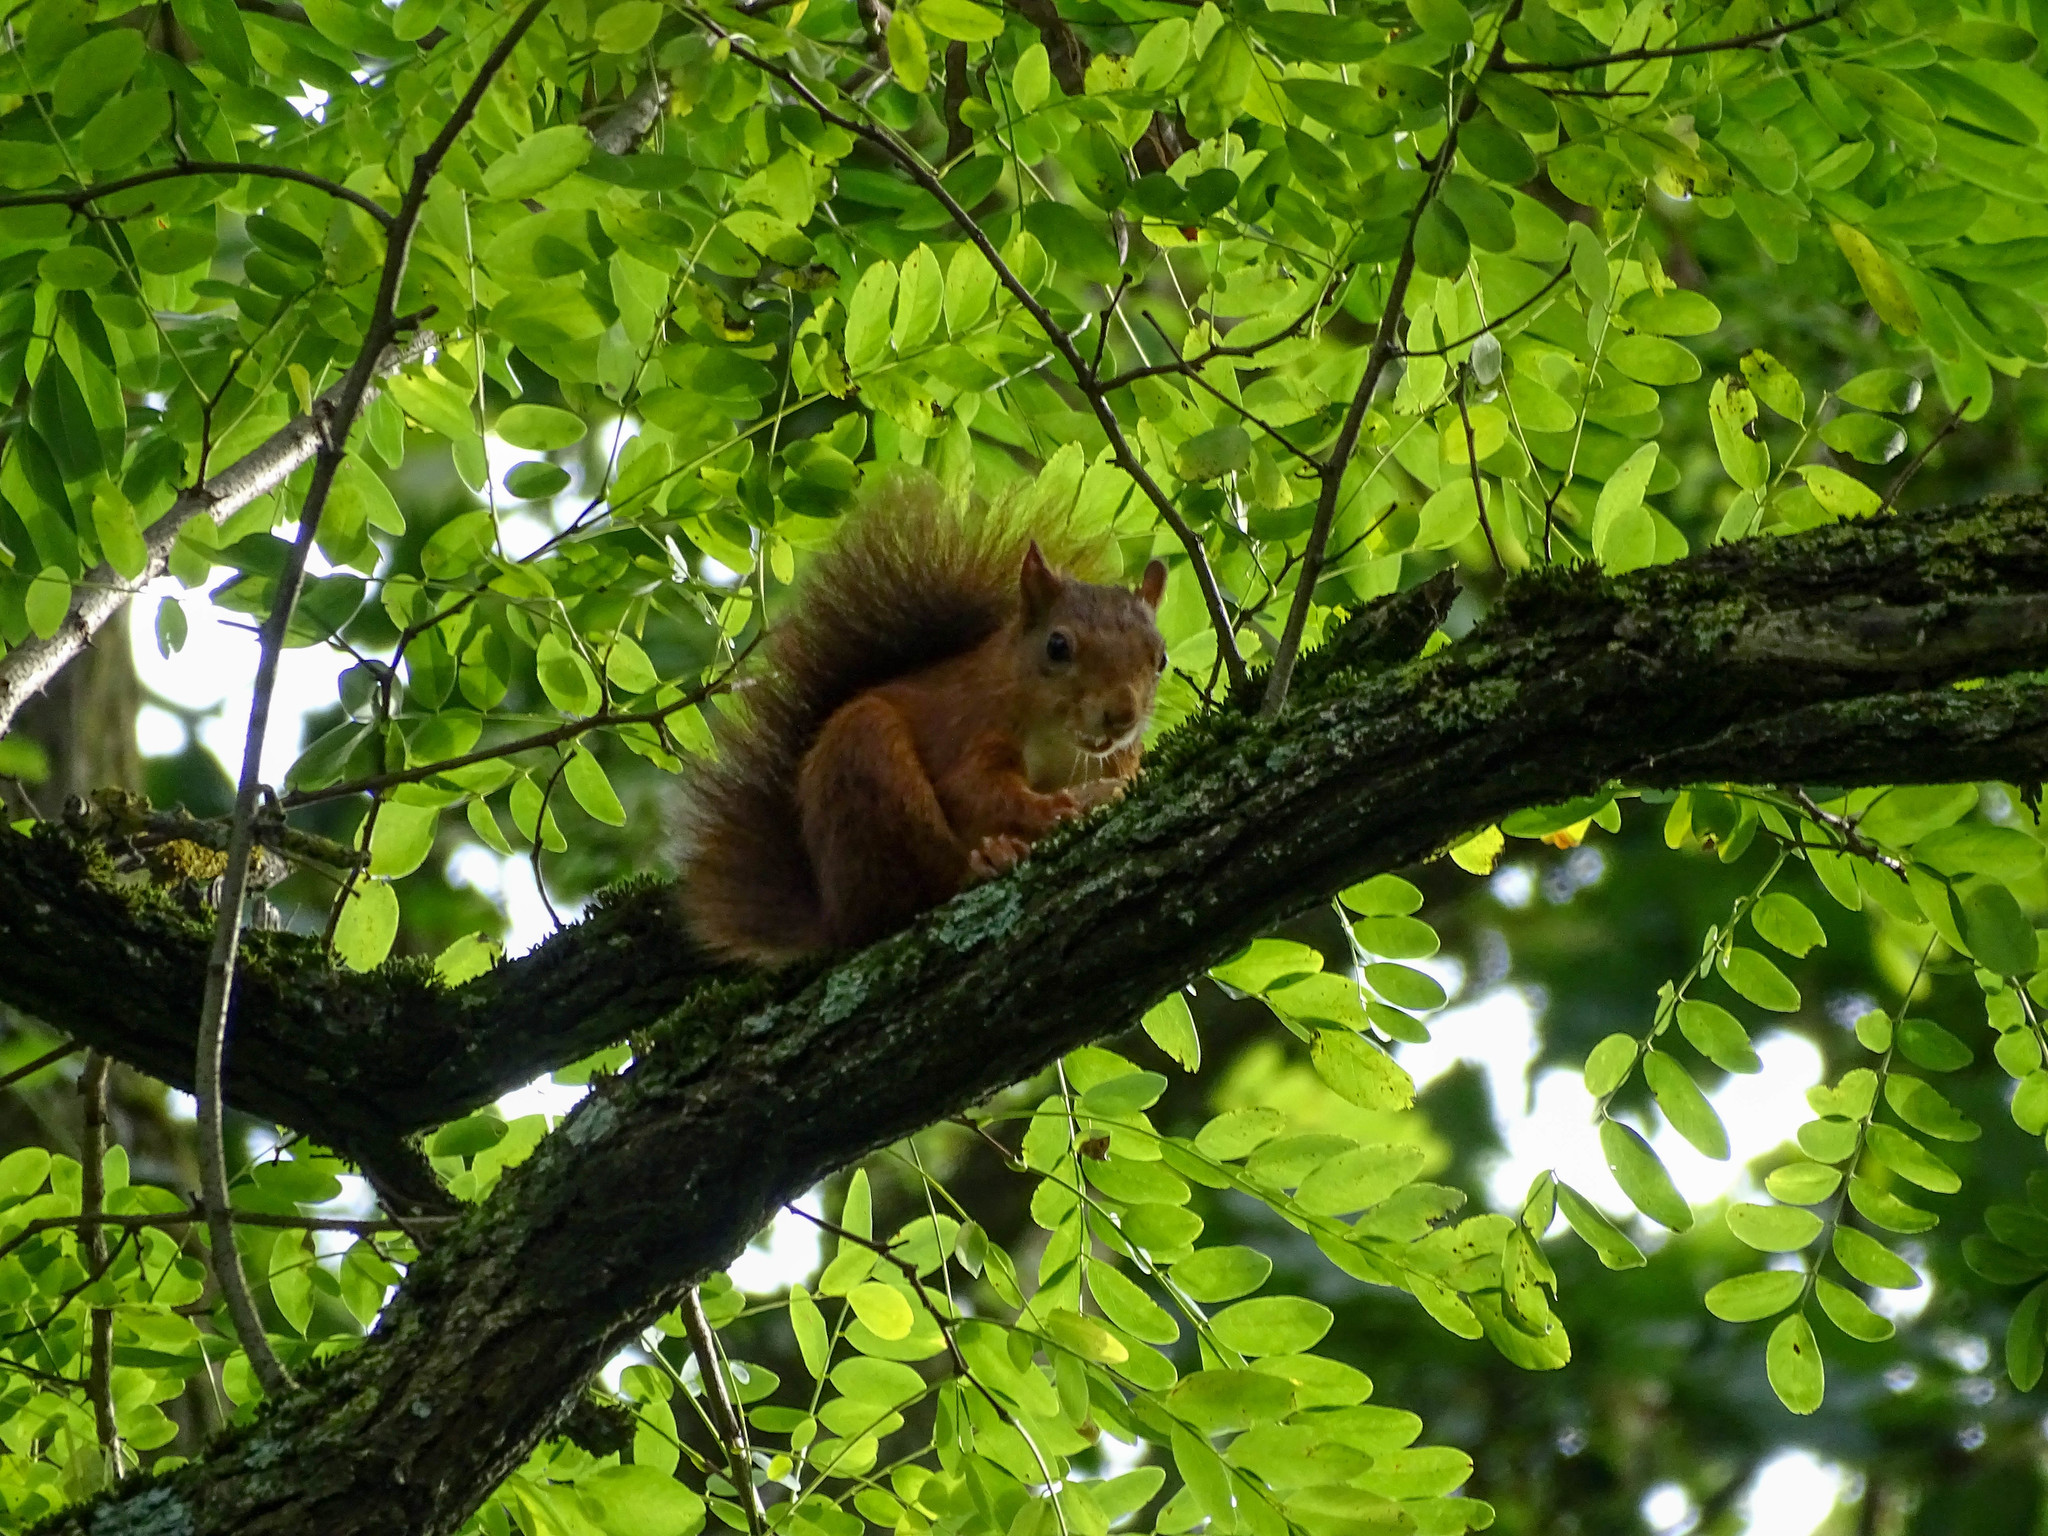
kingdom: Animalia
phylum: Chordata
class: Mammalia
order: Rodentia
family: Sciuridae
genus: Sciurus
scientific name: Sciurus vulgaris
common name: Eurasian red squirrel
